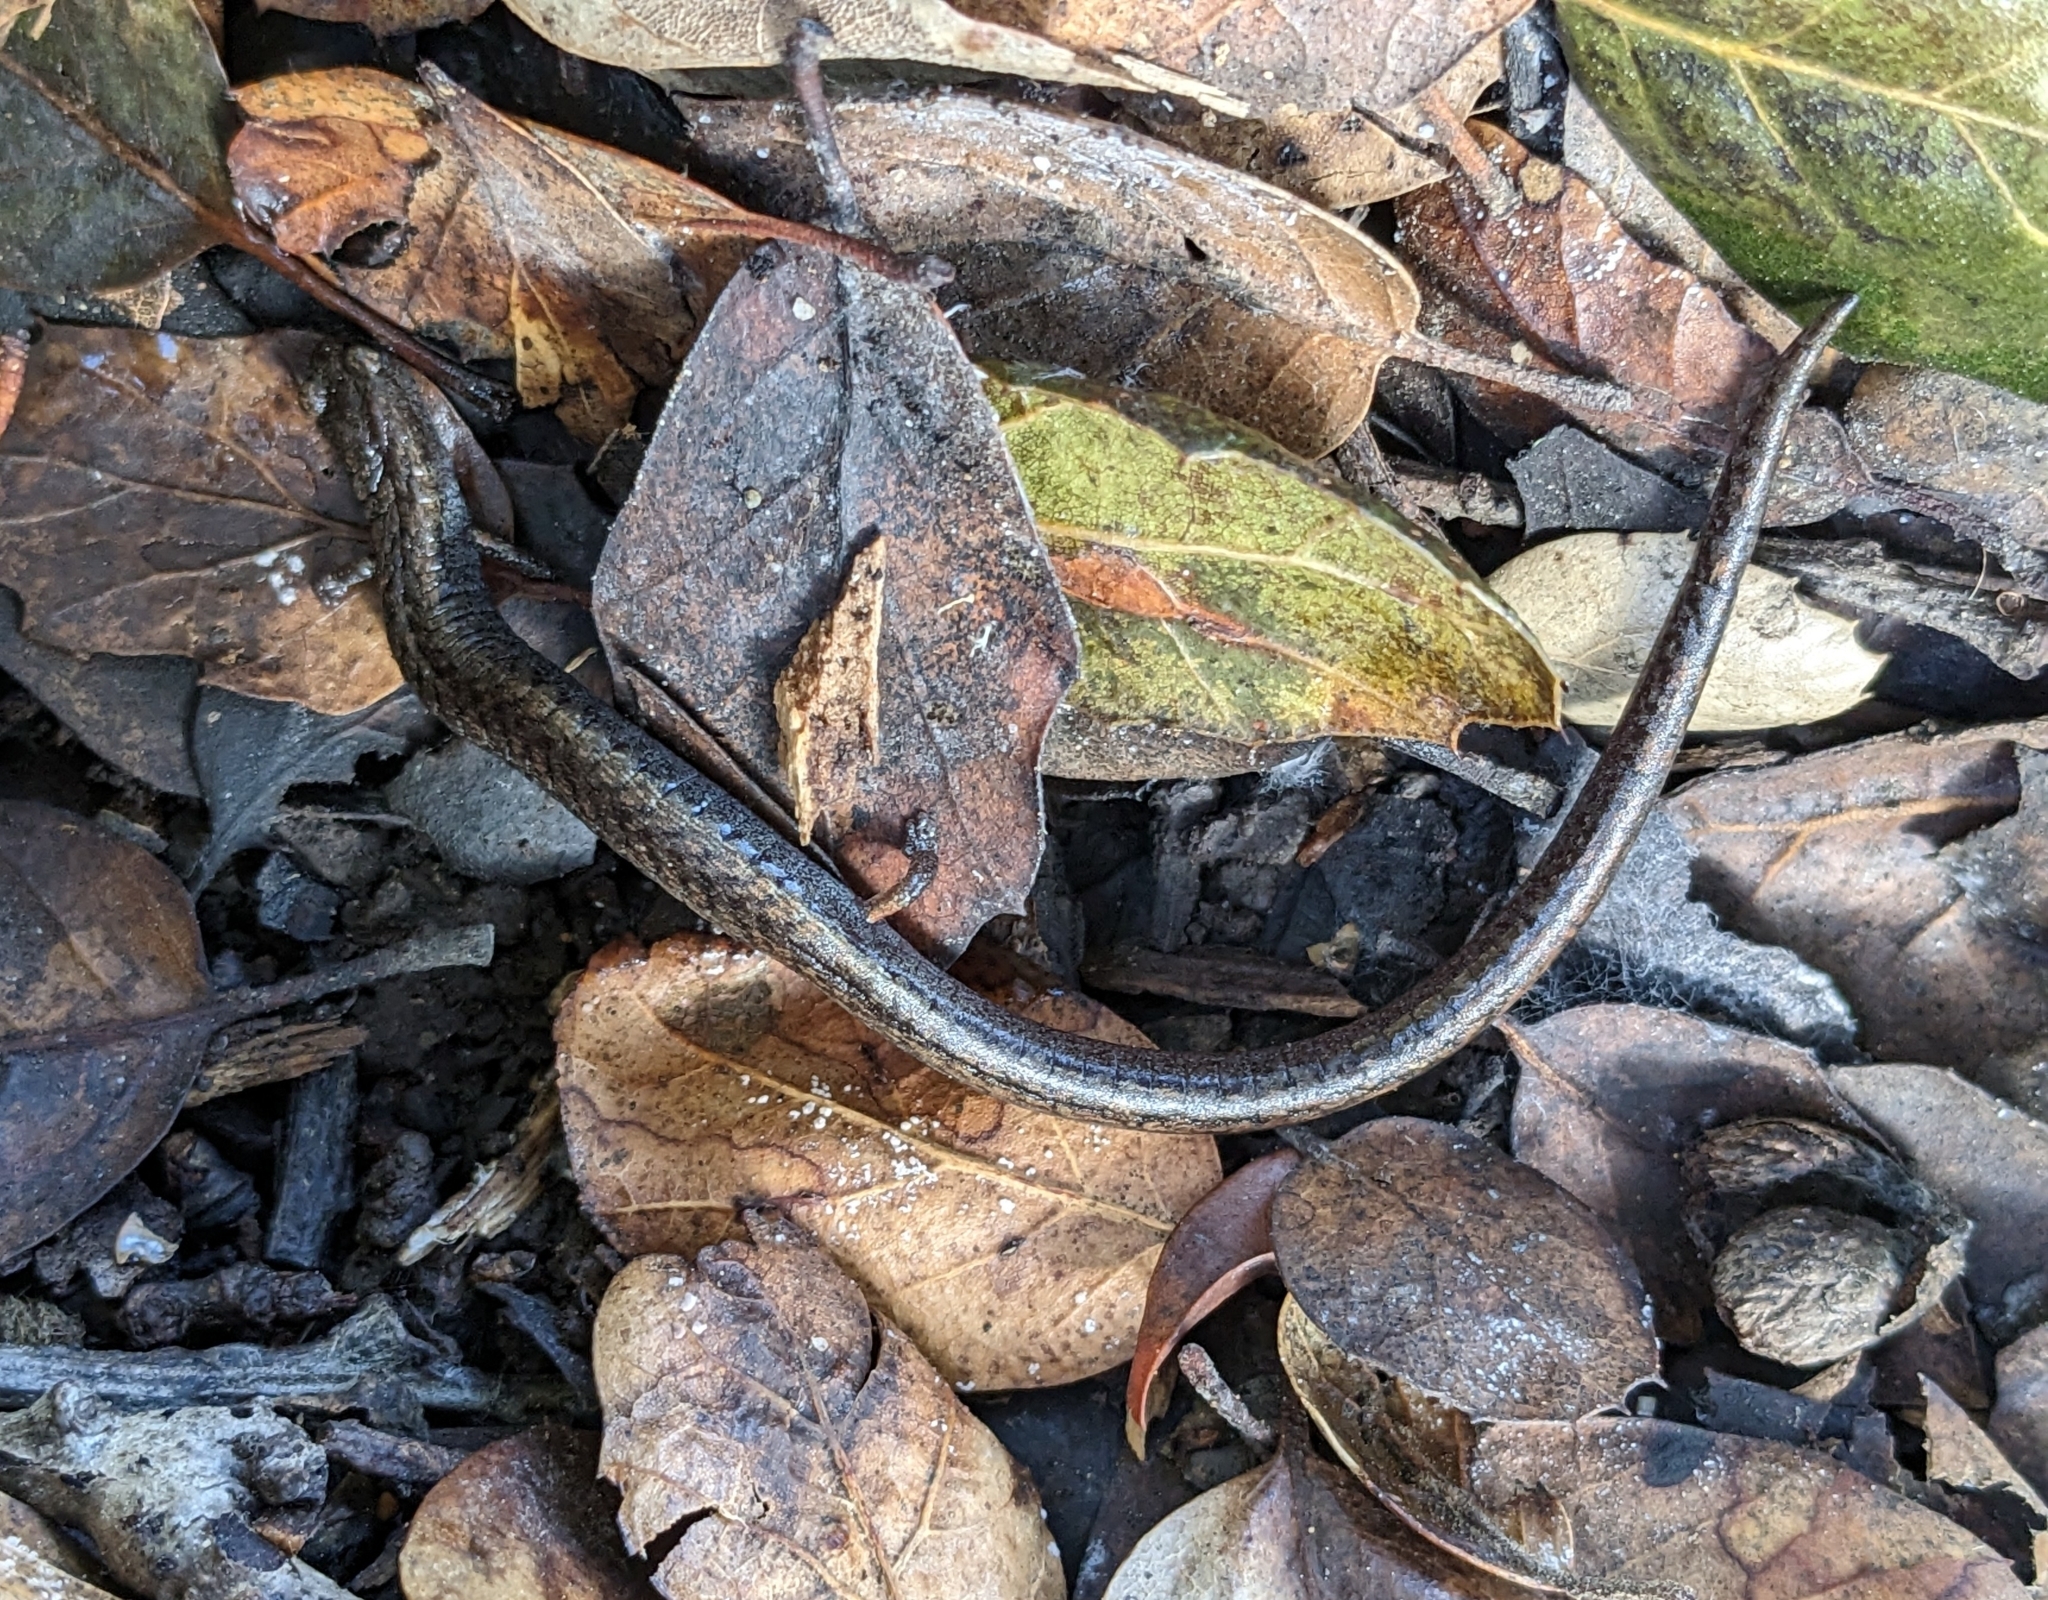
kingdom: Animalia
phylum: Chordata
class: Amphibia
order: Caudata
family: Plethodontidae
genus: Batrachoseps
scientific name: Batrachoseps attenuatus
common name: California slender salamander
